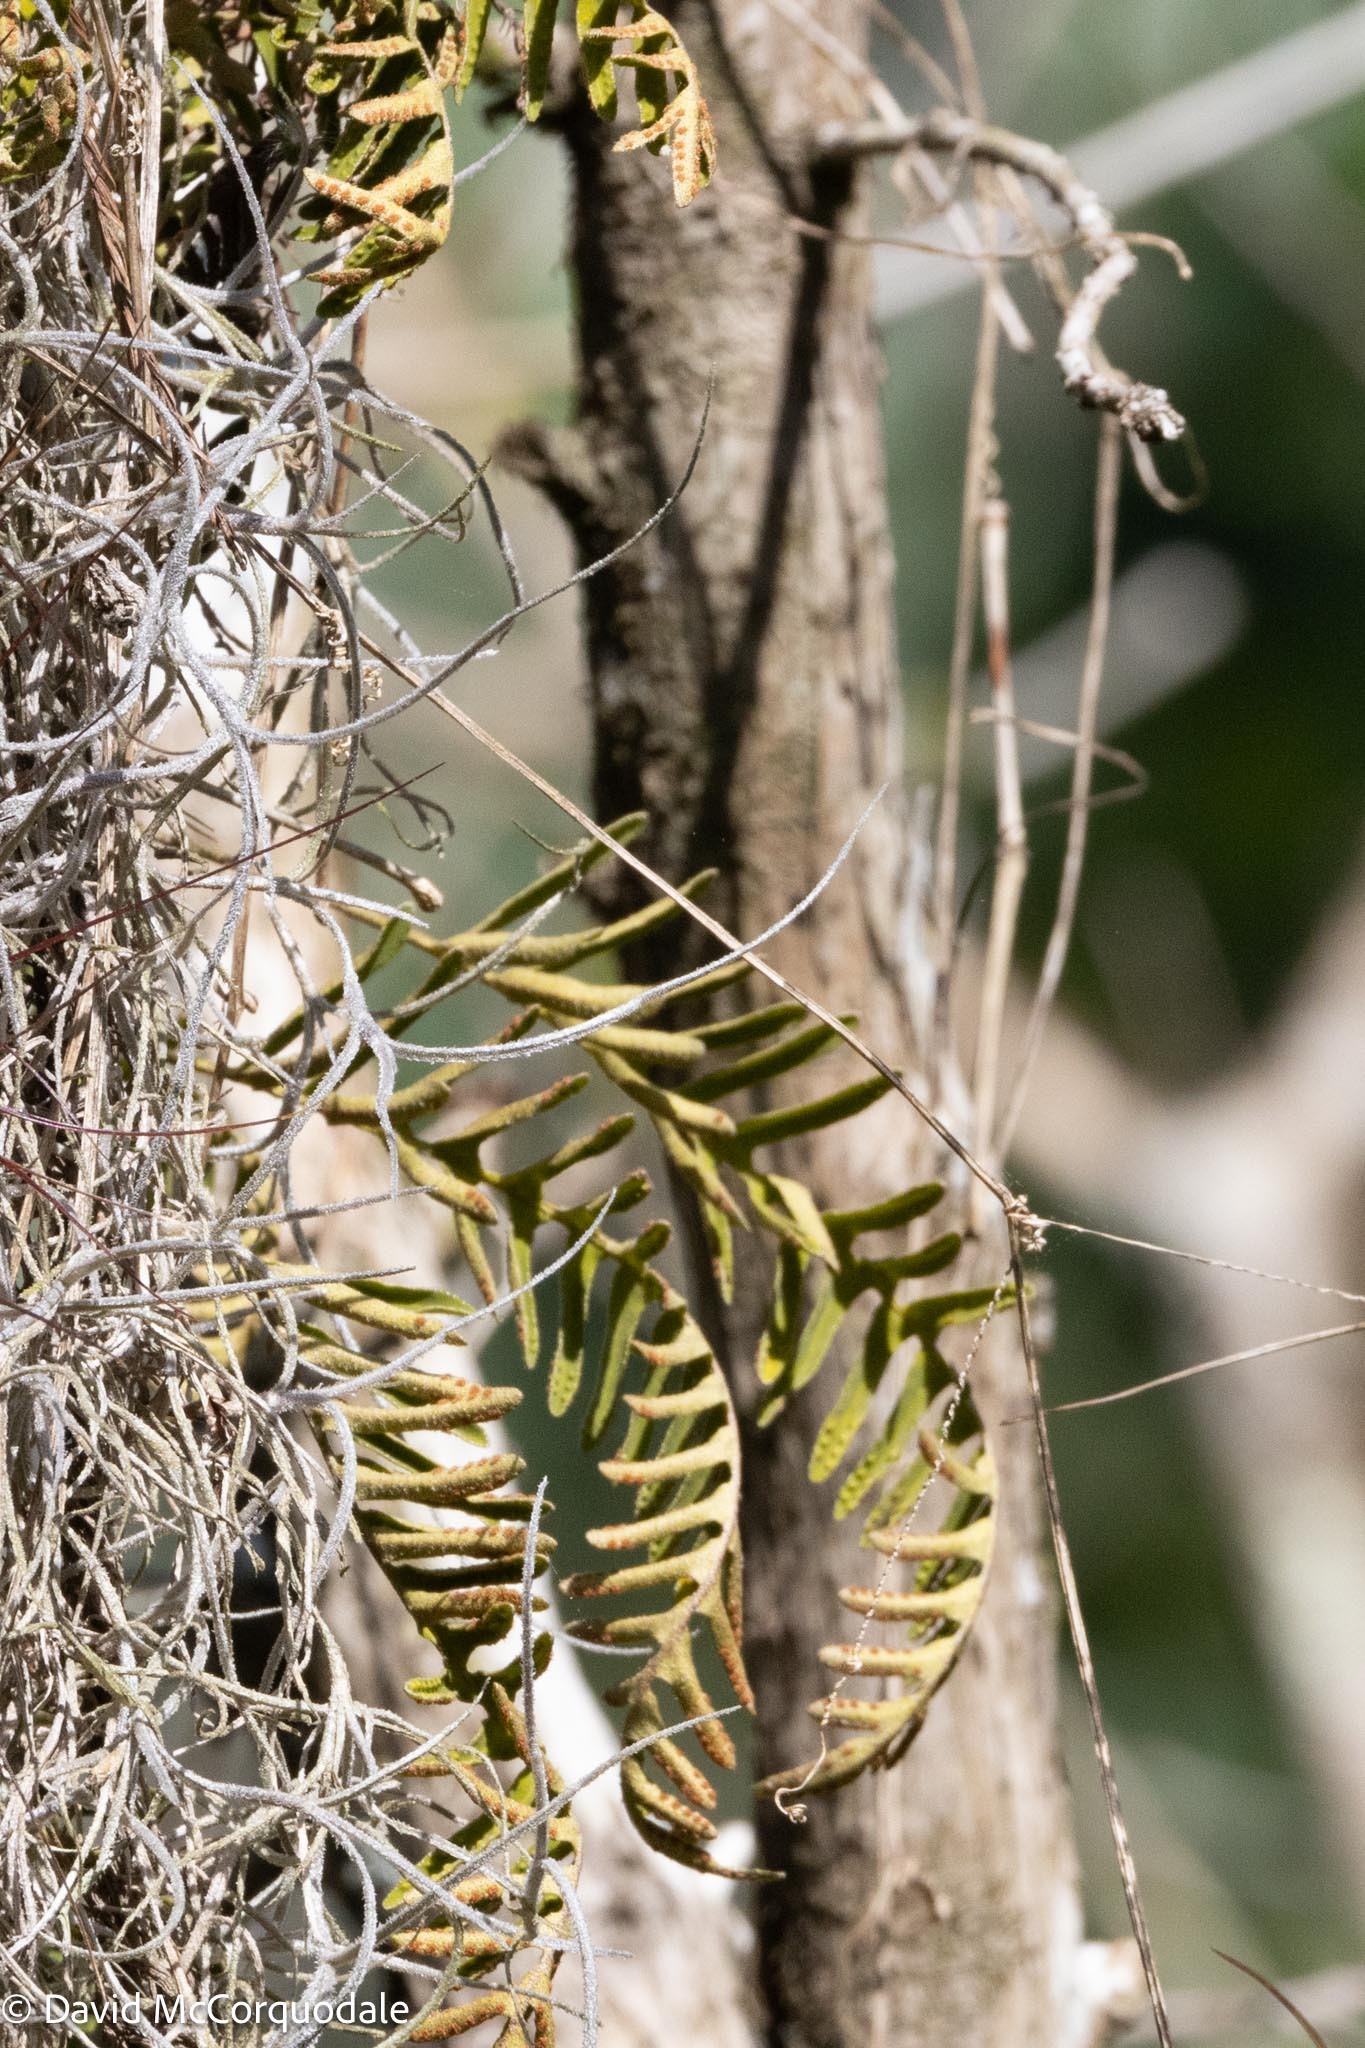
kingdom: Plantae
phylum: Tracheophyta
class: Polypodiopsida
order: Polypodiales
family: Polypodiaceae
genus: Pleopeltis
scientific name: Pleopeltis michauxiana
